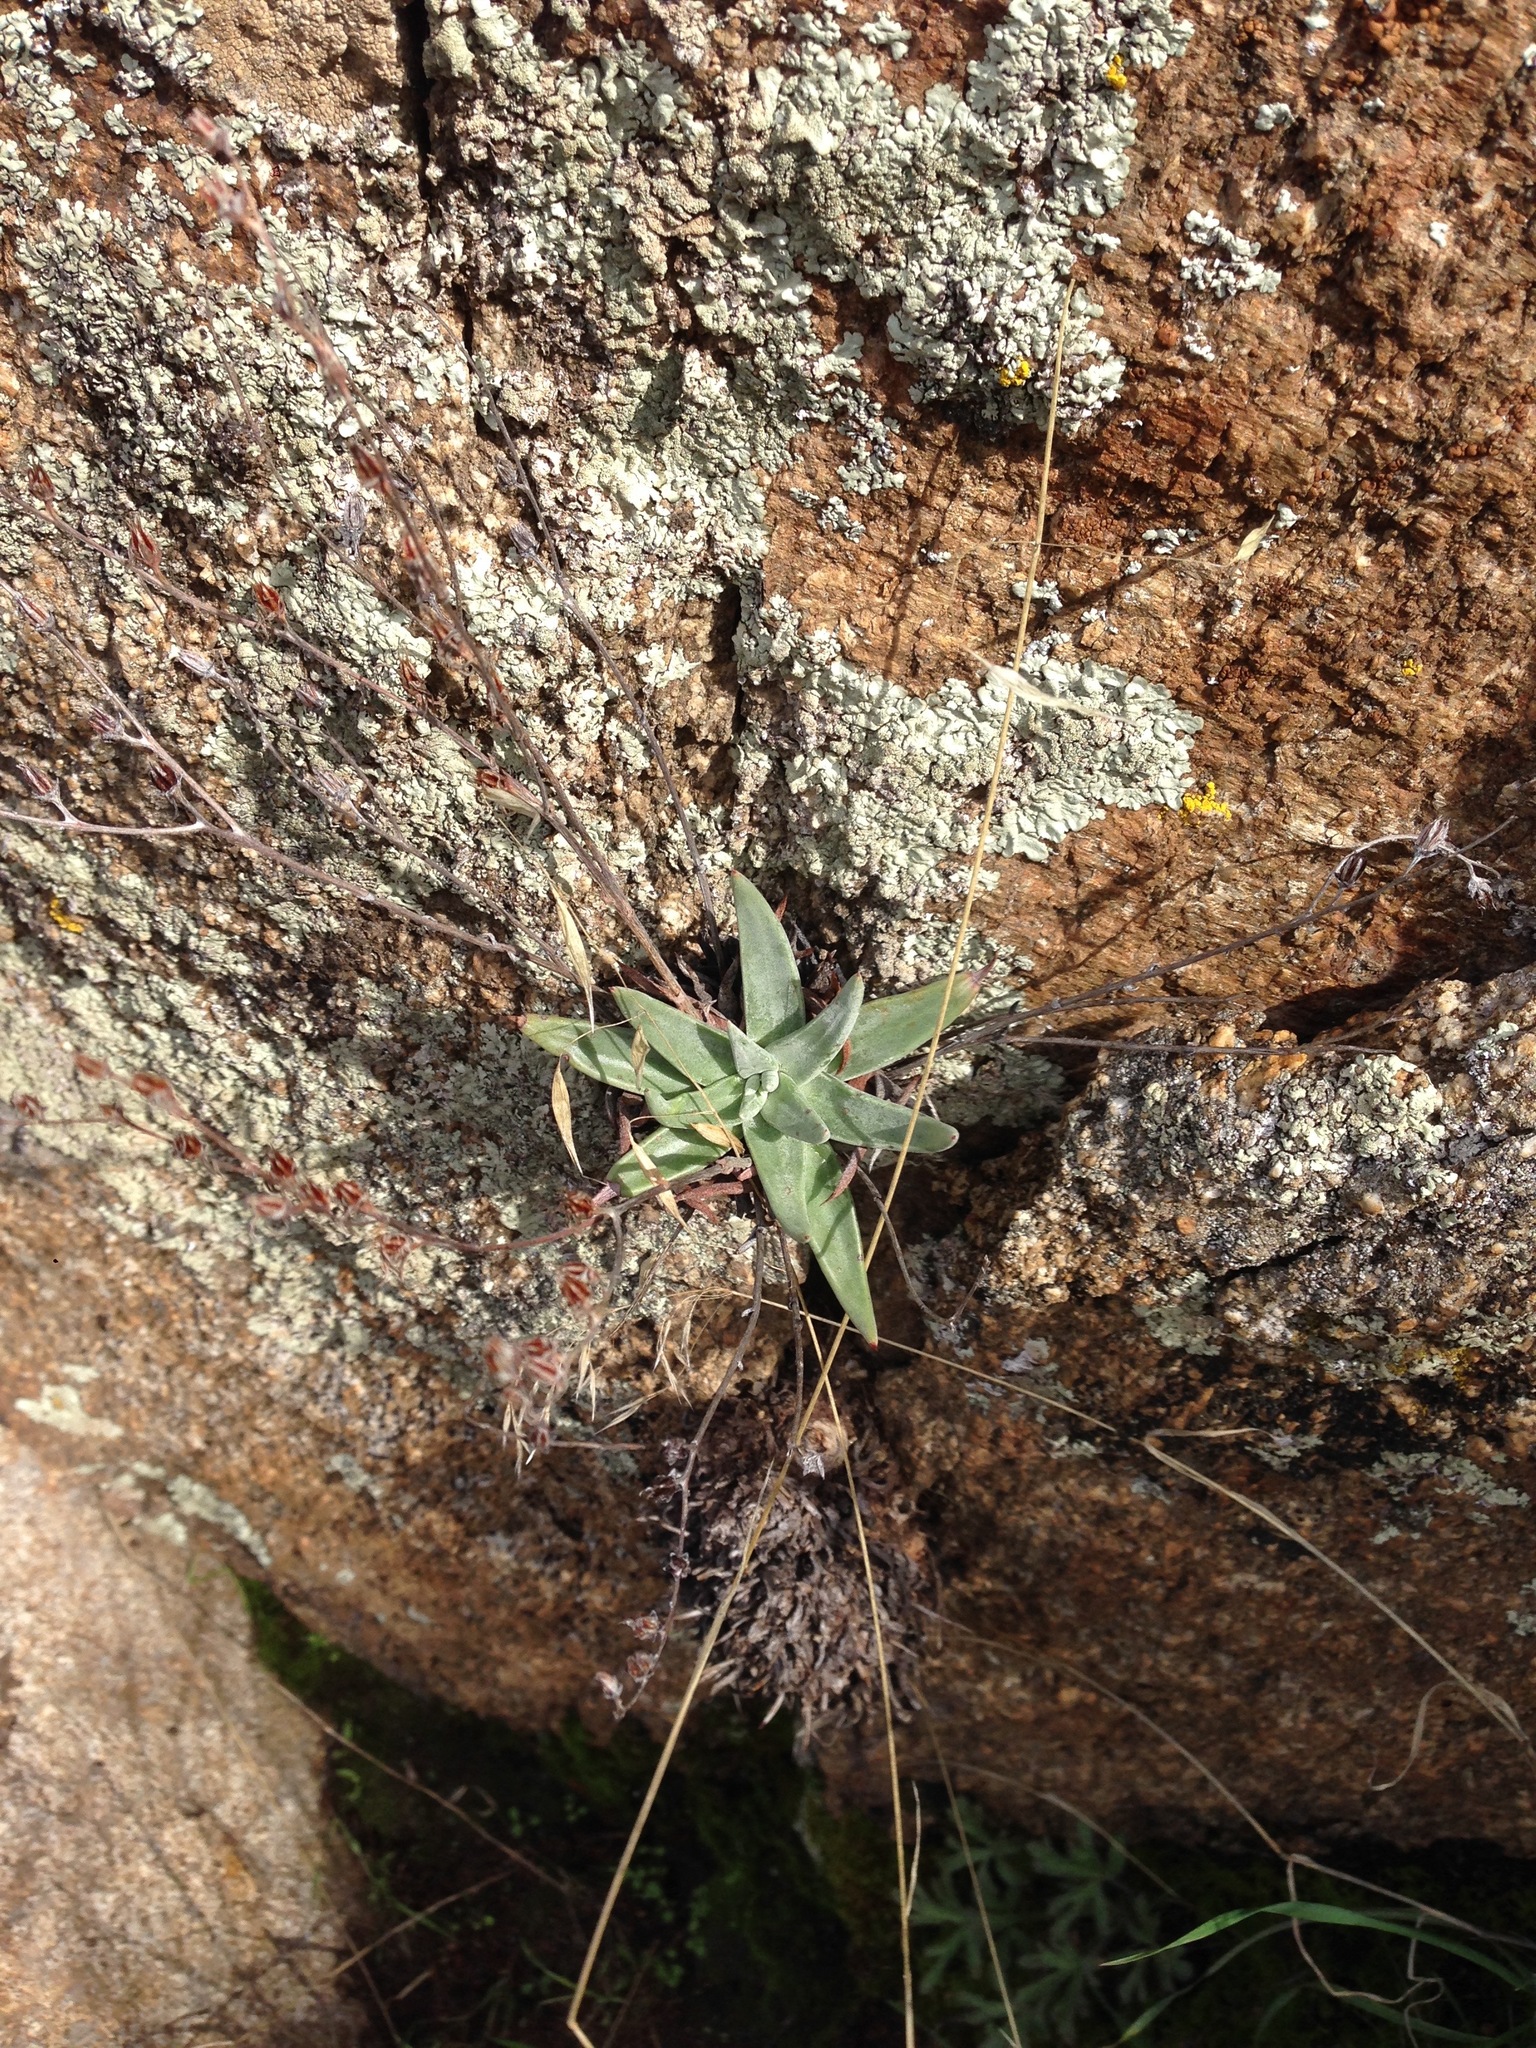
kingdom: Plantae
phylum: Tracheophyta
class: Magnoliopsida
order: Saxifragales
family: Crassulaceae
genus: Dudleya
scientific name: Dudleya abramsii
